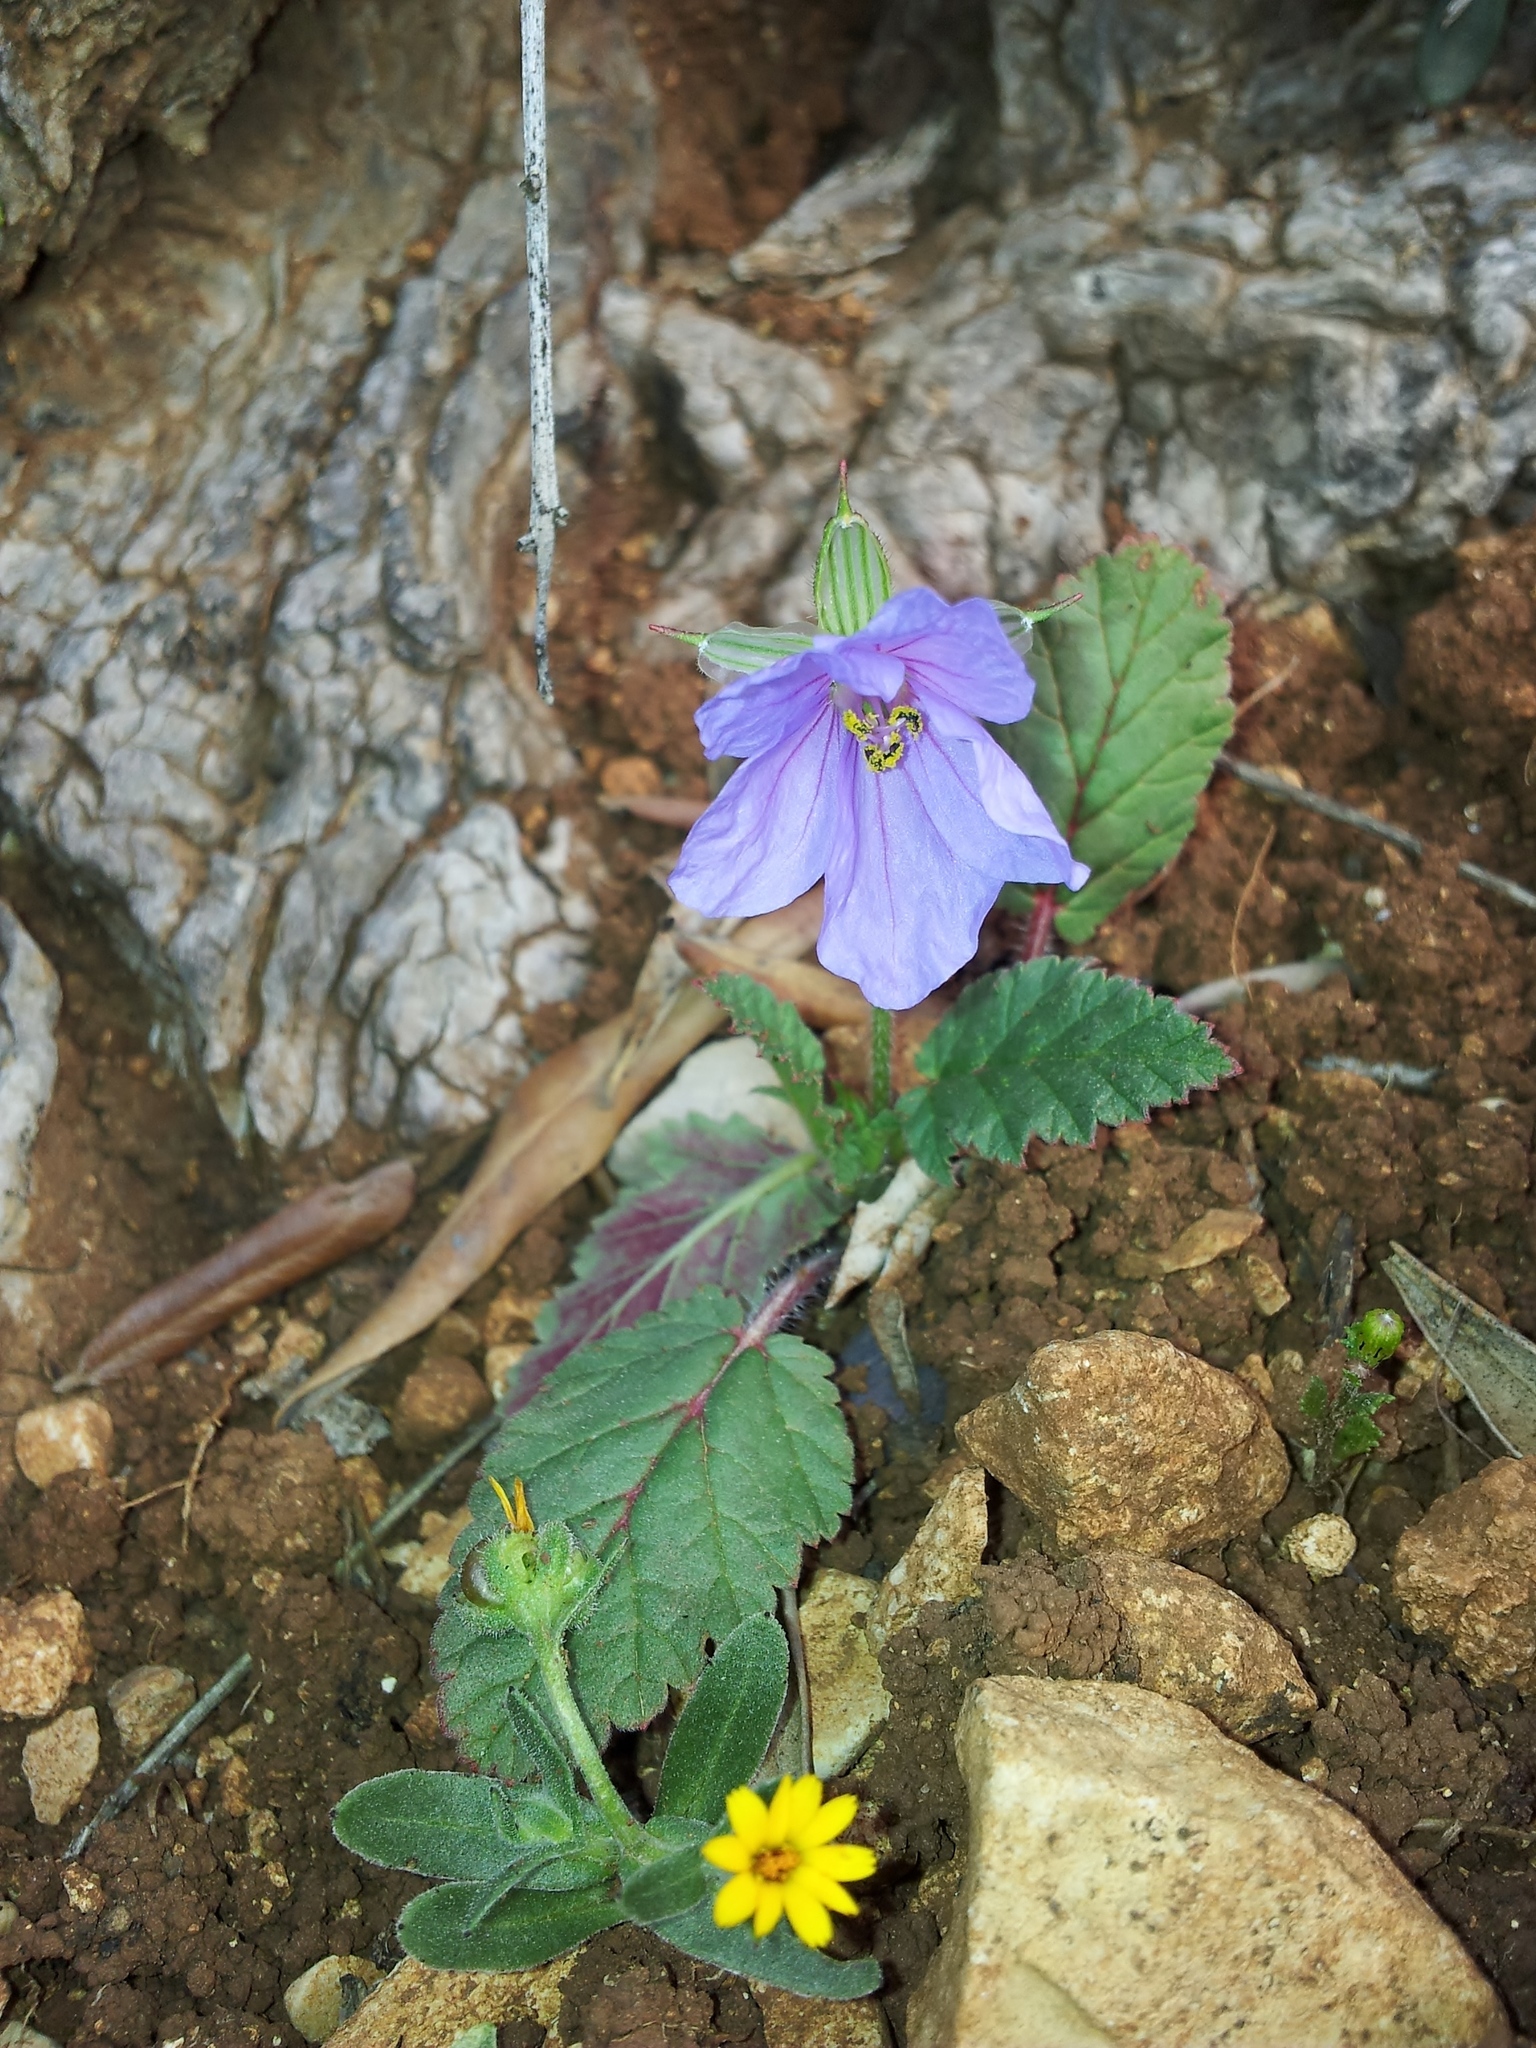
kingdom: Plantae
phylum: Tracheophyta
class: Magnoliopsida
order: Geraniales
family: Geraniaceae
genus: Erodium
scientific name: Erodium gruinum
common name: Iranian stork's bill
